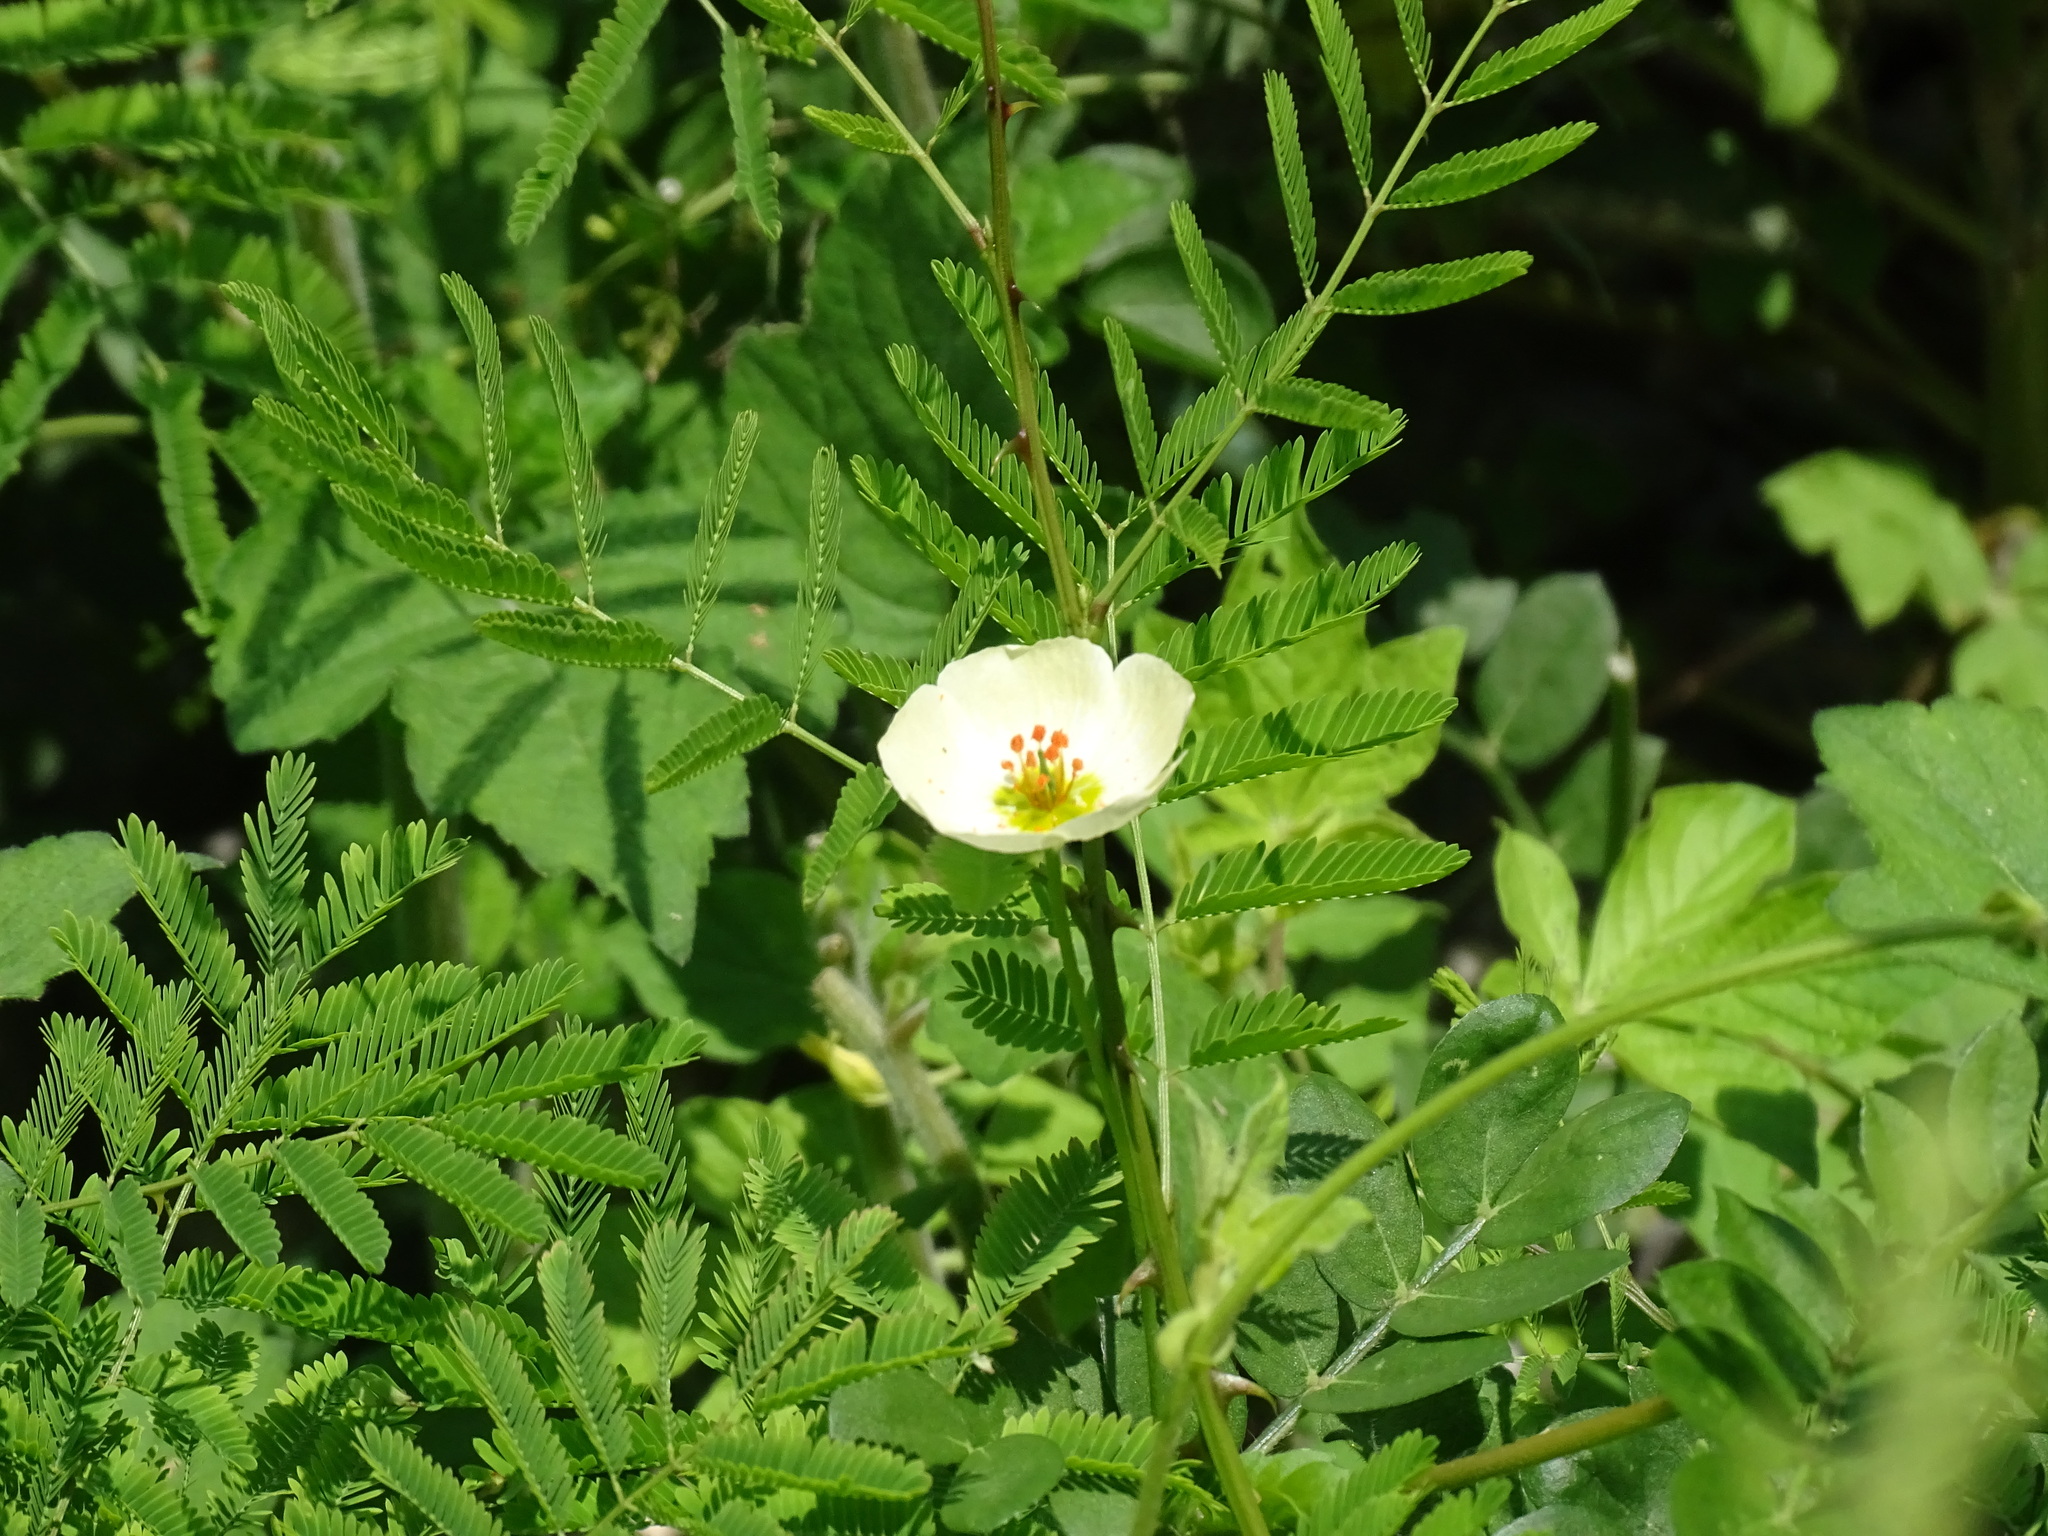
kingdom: Plantae
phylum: Tracheophyta
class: Magnoliopsida
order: Zygophyllales
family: Zygophyllaceae
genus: Kallstroemia
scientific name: Kallstroemia rosei
